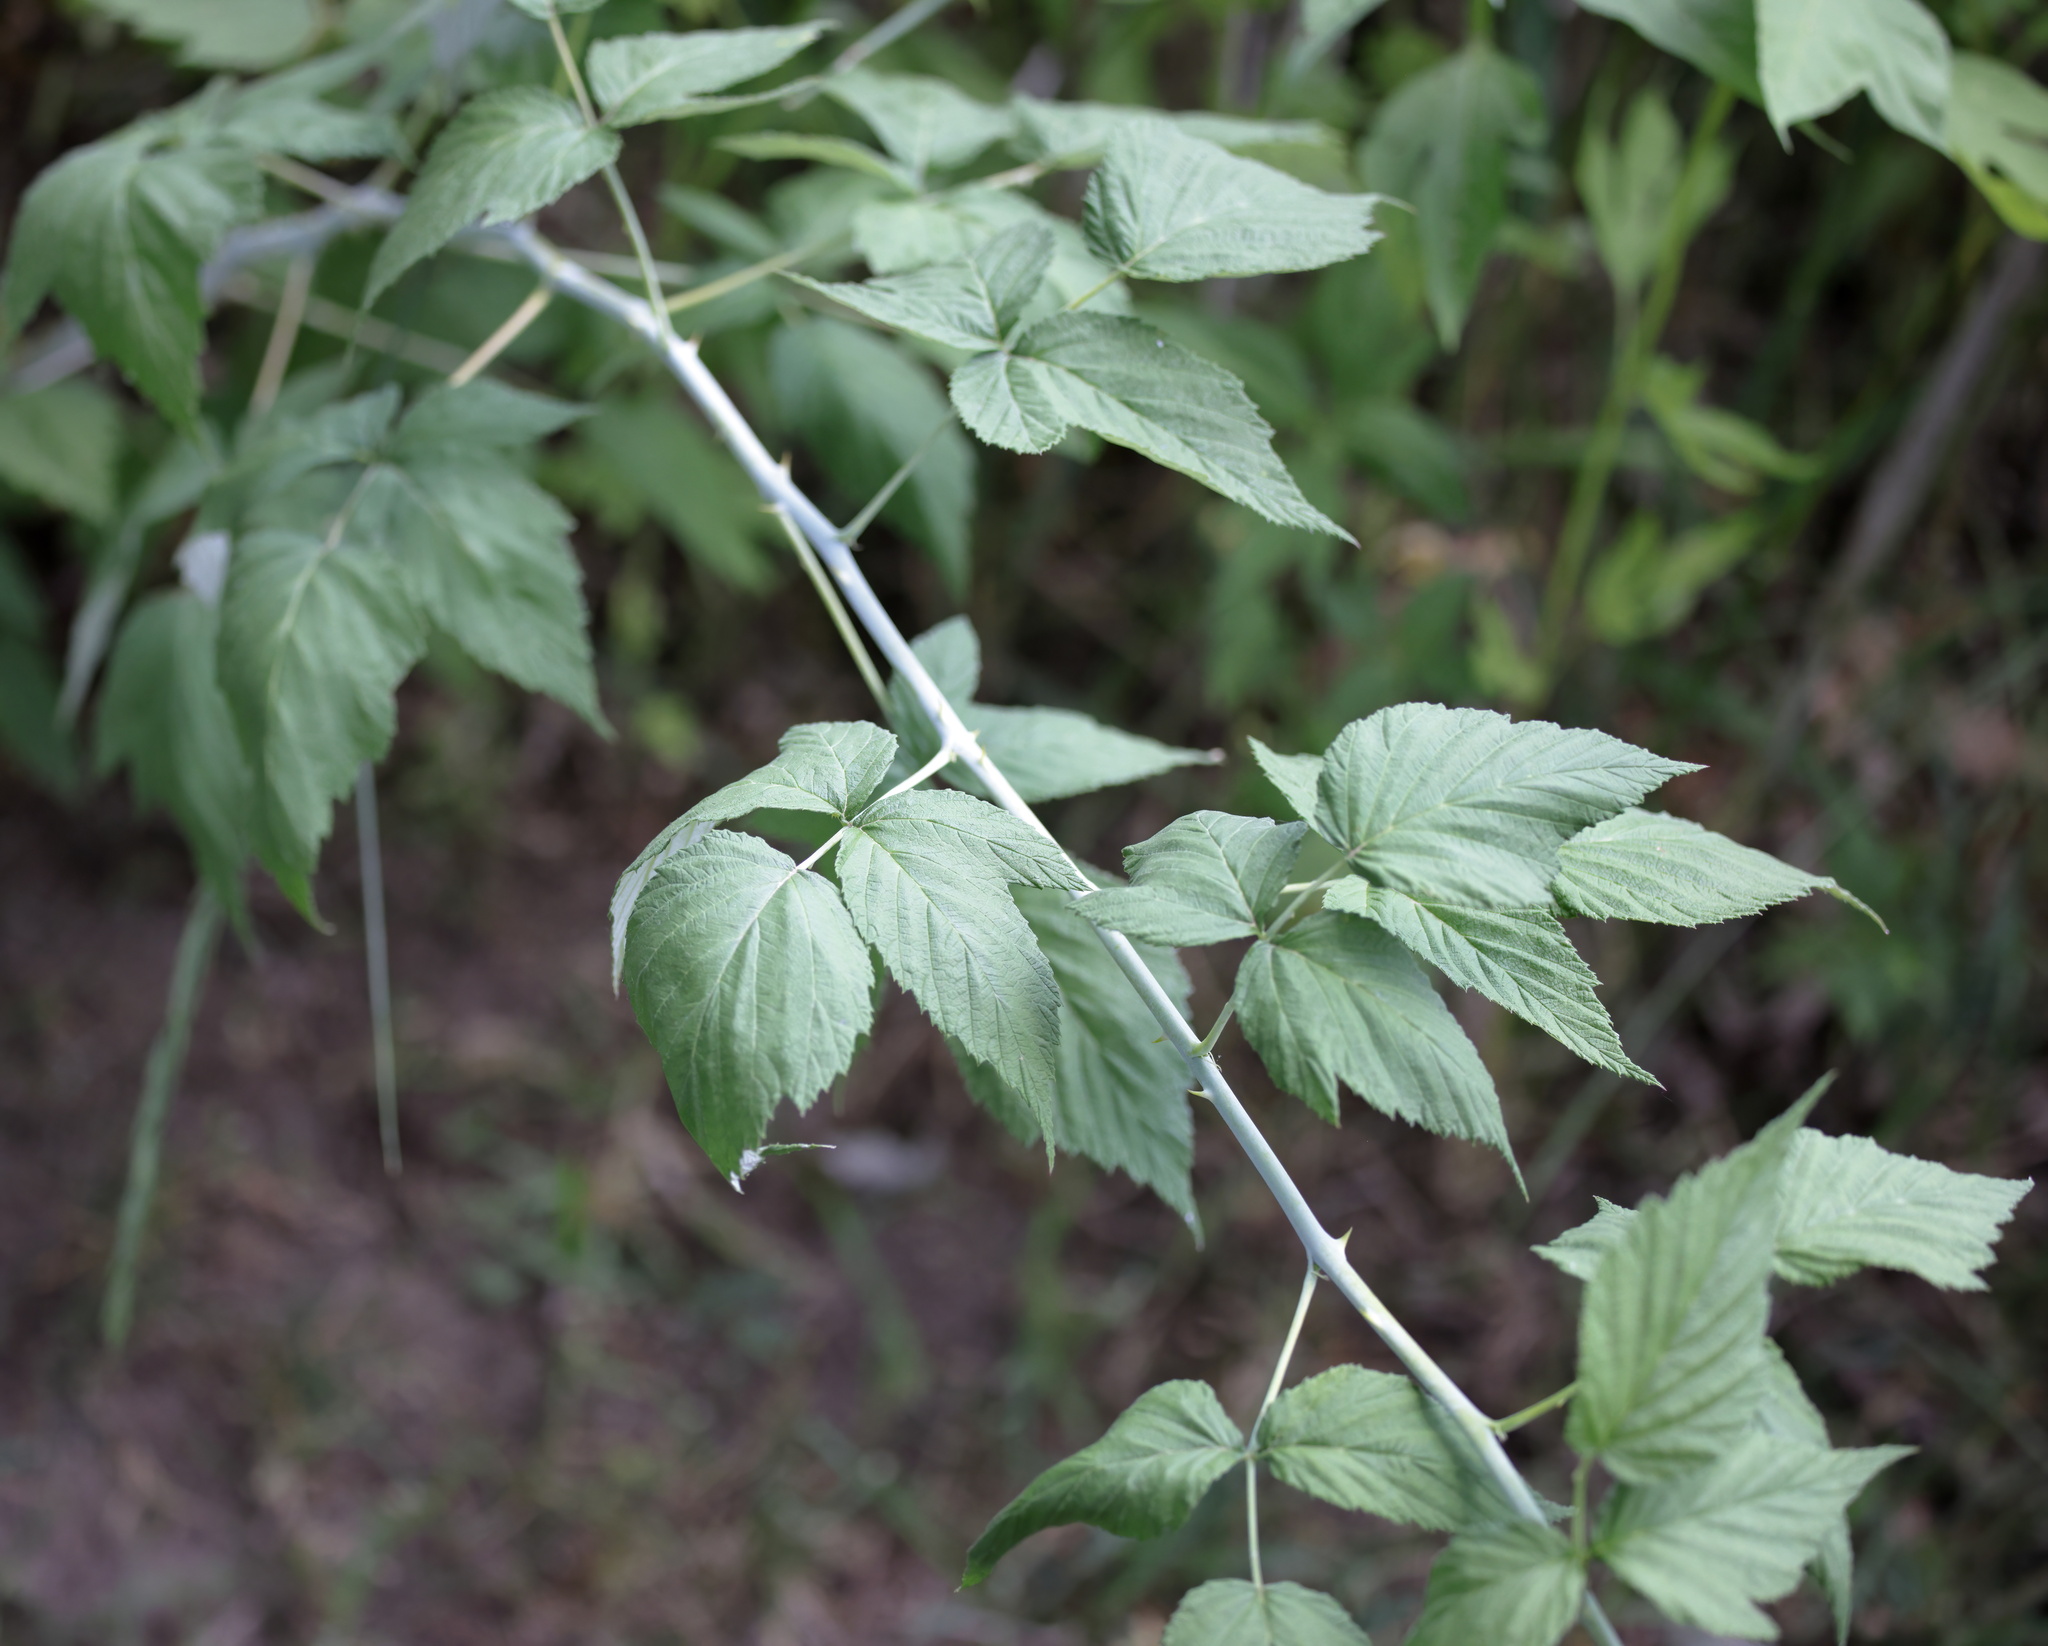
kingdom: Plantae
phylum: Tracheophyta
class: Magnoliopsida
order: Rosales
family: Rosaceae
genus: Rubus
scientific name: Rubus occidentalis
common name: Black raspberry
